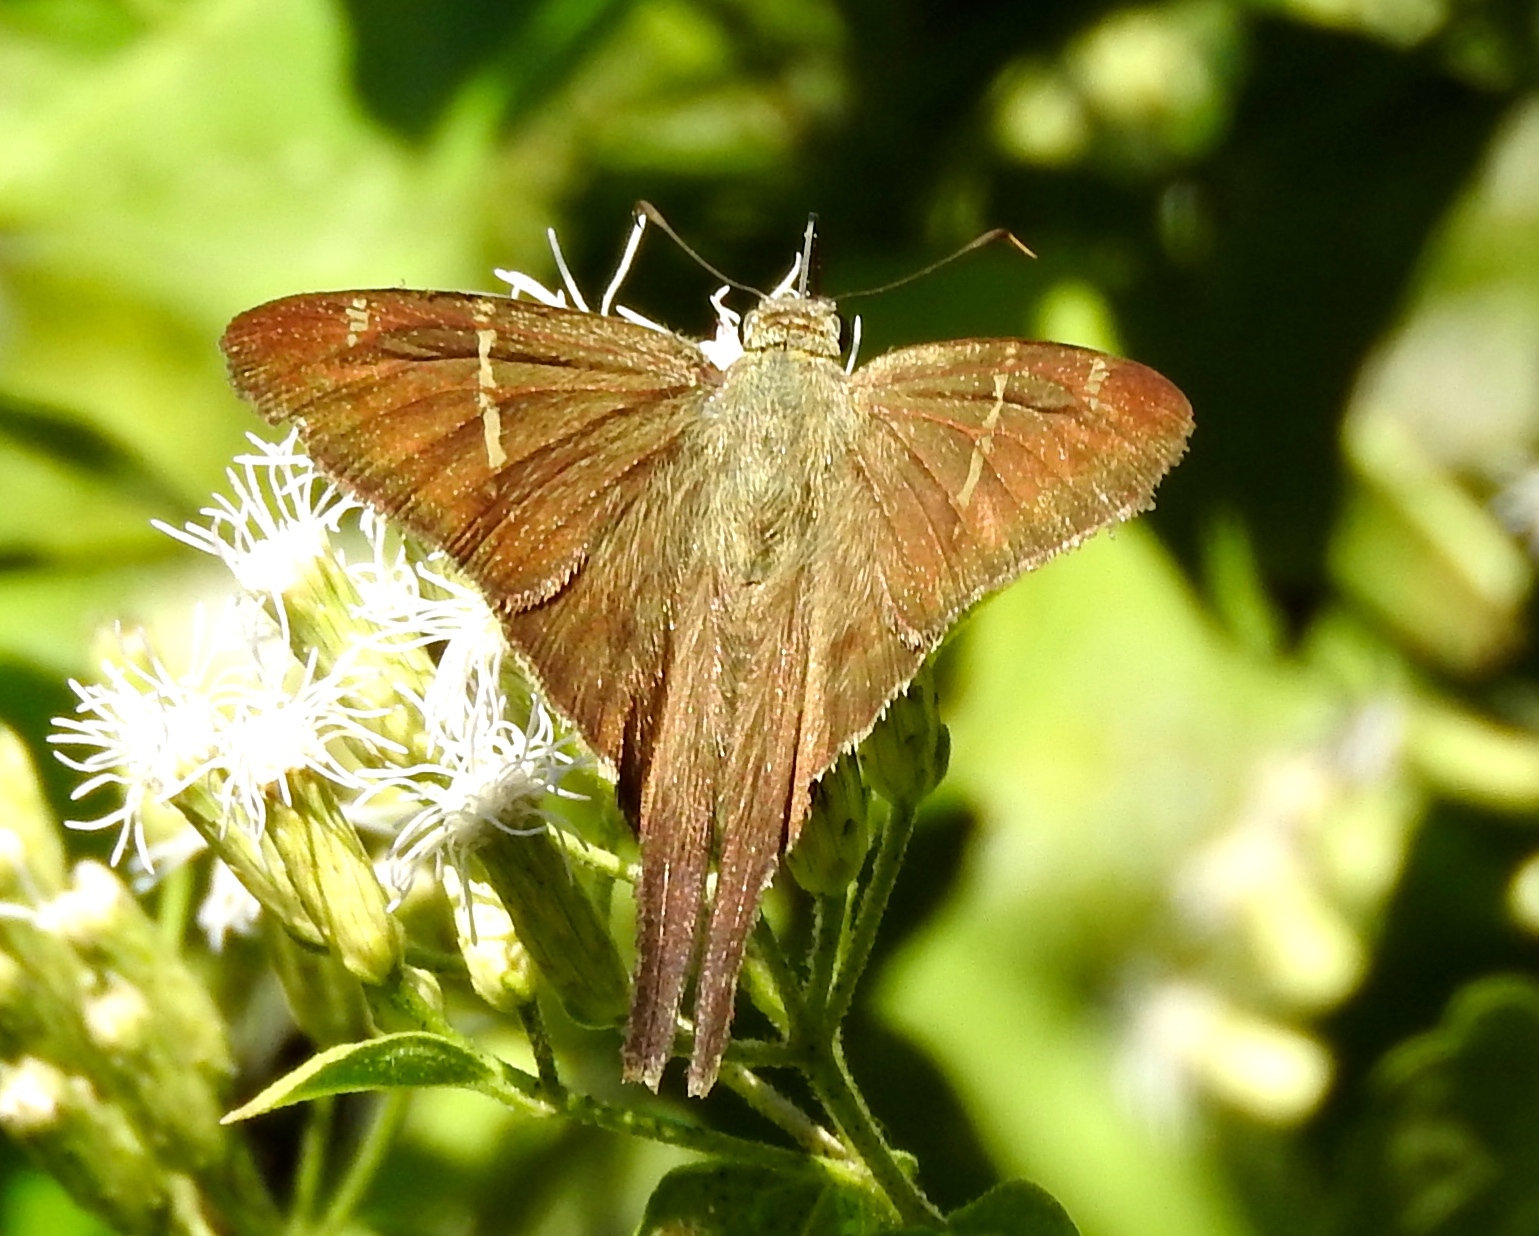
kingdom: Animalia
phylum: Arthropoda
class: Insecta
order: Lepidoptera
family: Hesperiidae
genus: Urbanus
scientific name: Urbanus procne
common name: Brown longtail
